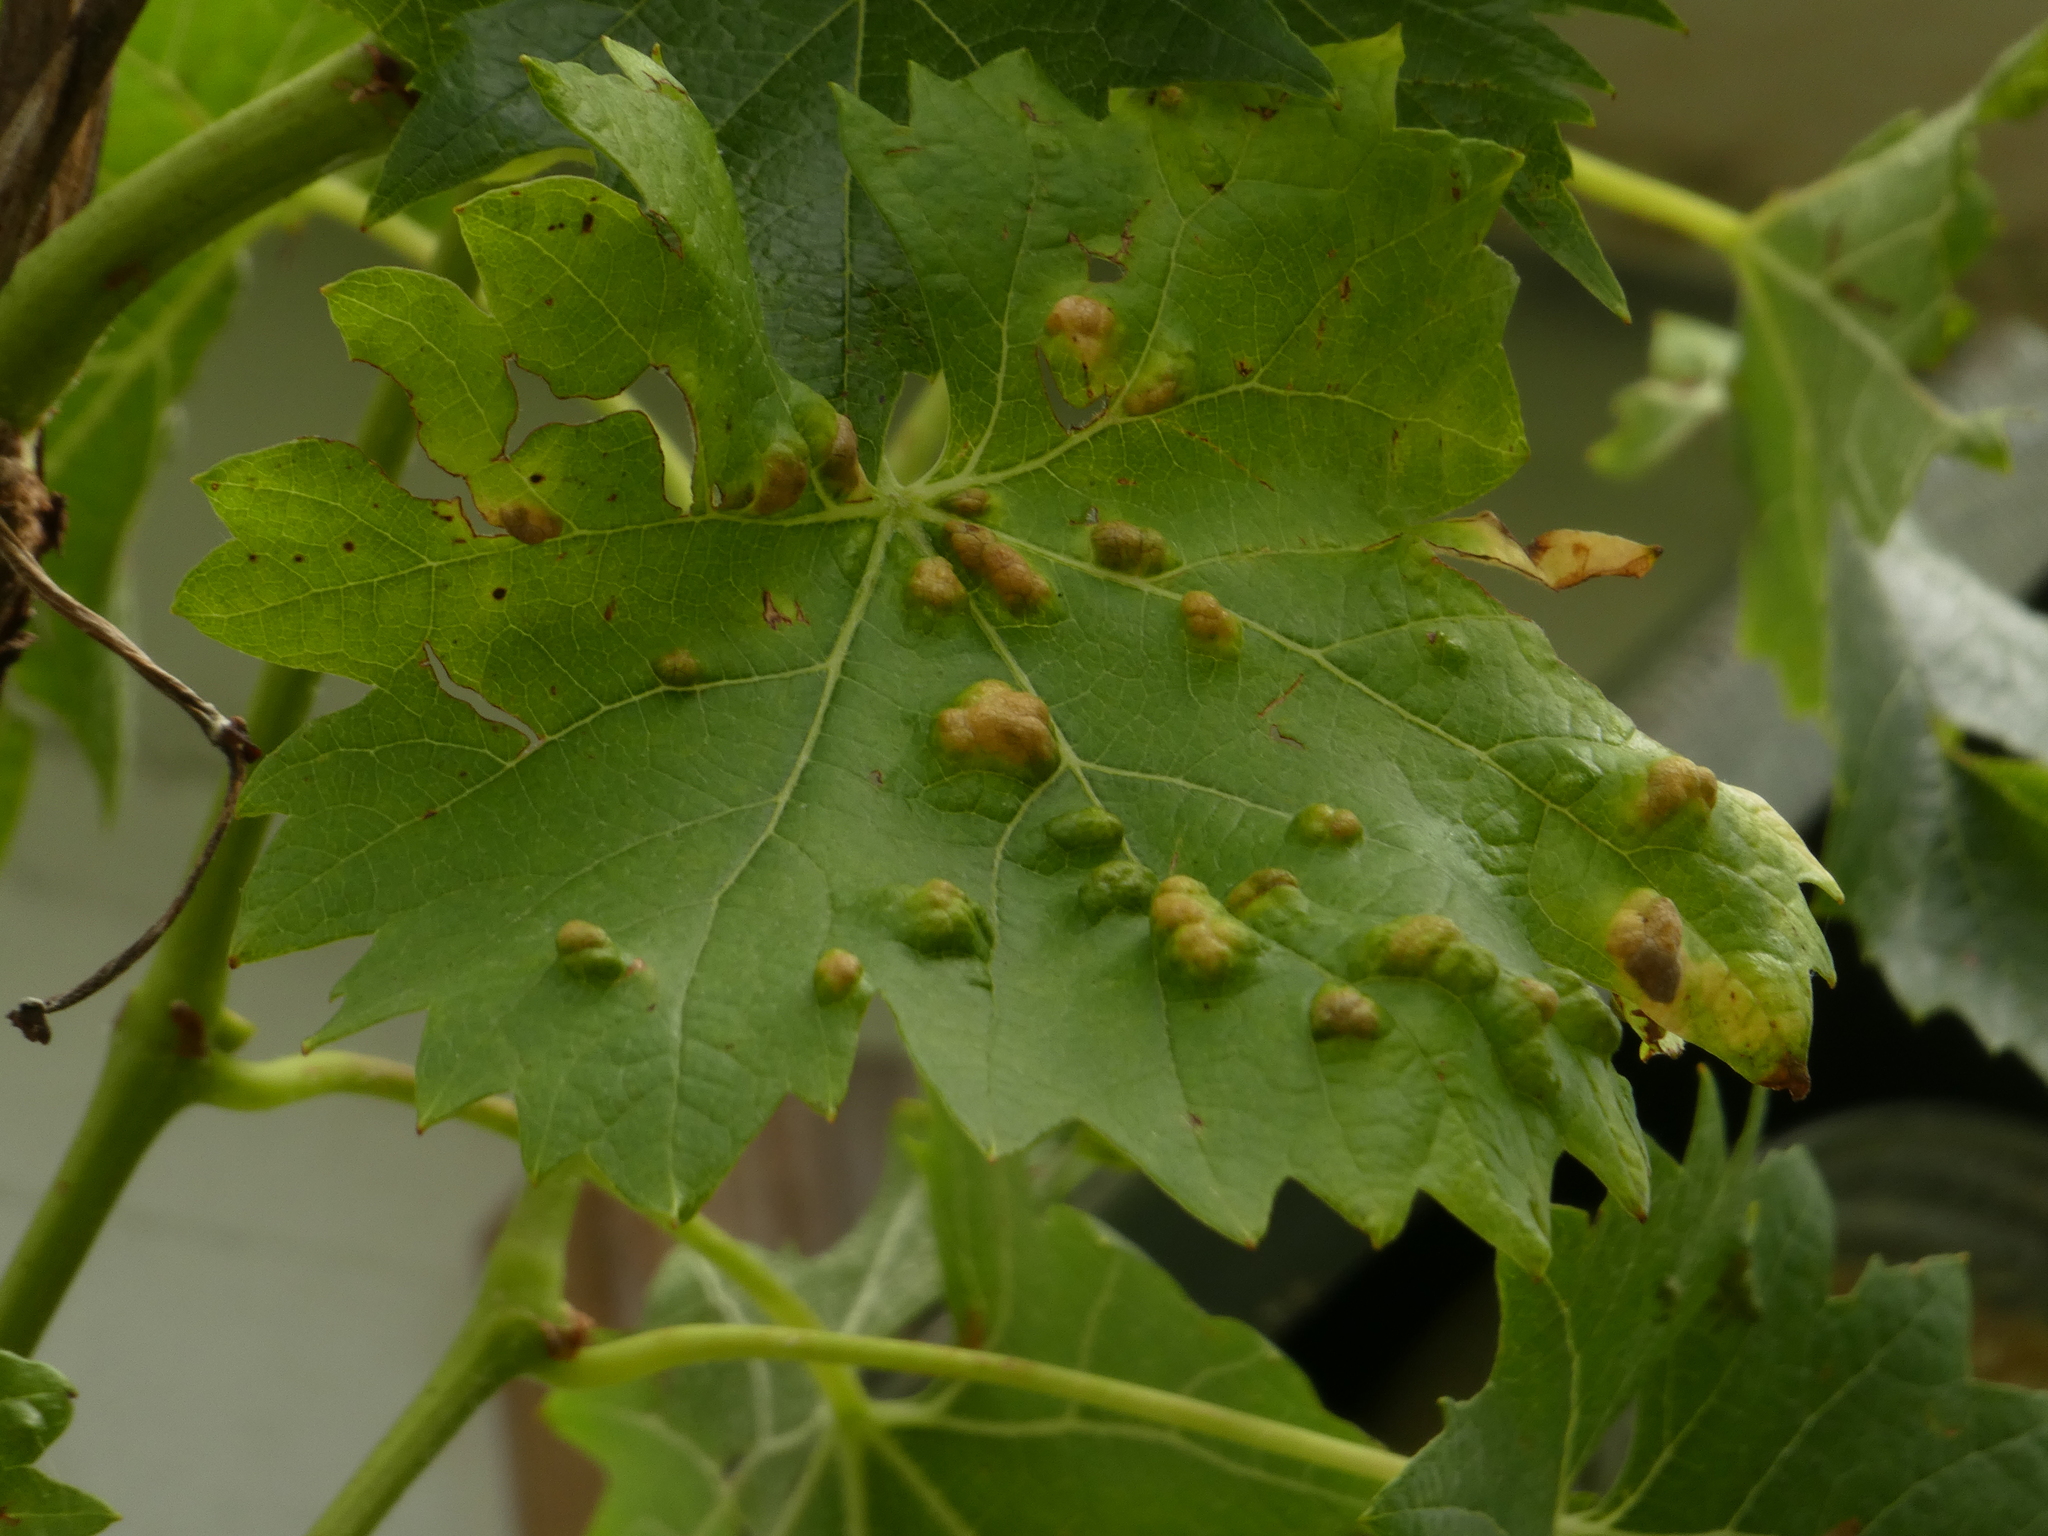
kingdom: Animalia
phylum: Arthropoda
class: Arachnida
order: Trombidiformes
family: Eriophyidae
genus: Colomerus
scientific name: Colomerus vitis
